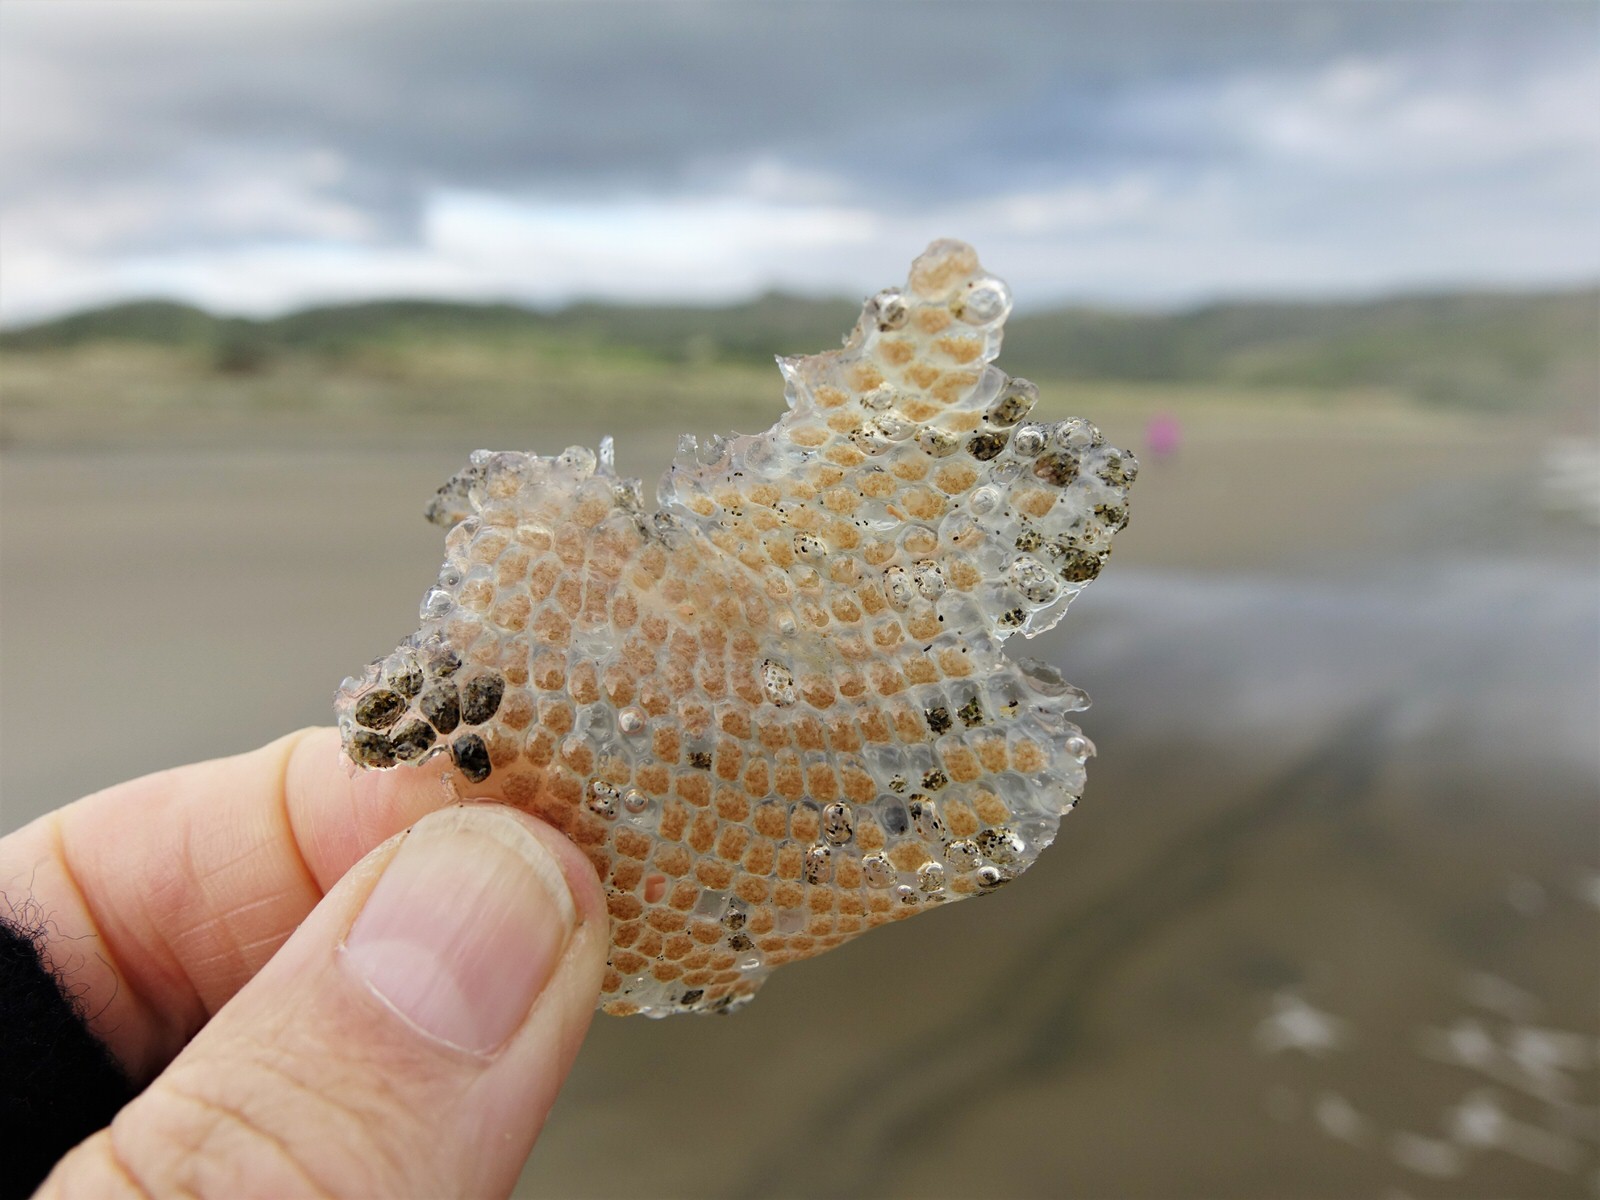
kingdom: Animalia
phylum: Mollusca
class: Gastropoda
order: Littorinimorpha
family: Tonnidae
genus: Tonna
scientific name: Tonna tankervillii
